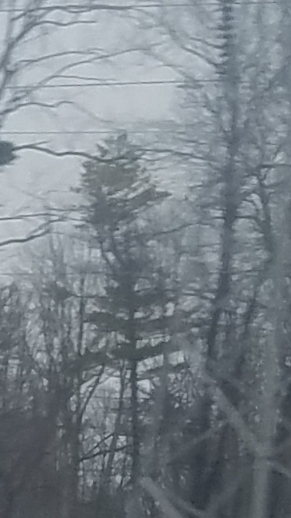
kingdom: Plantae
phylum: Tracheophyta
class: Pinopsida
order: Pinales
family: Pinaceae
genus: Pinus
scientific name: Pinus strobus
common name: Weymouth pine
